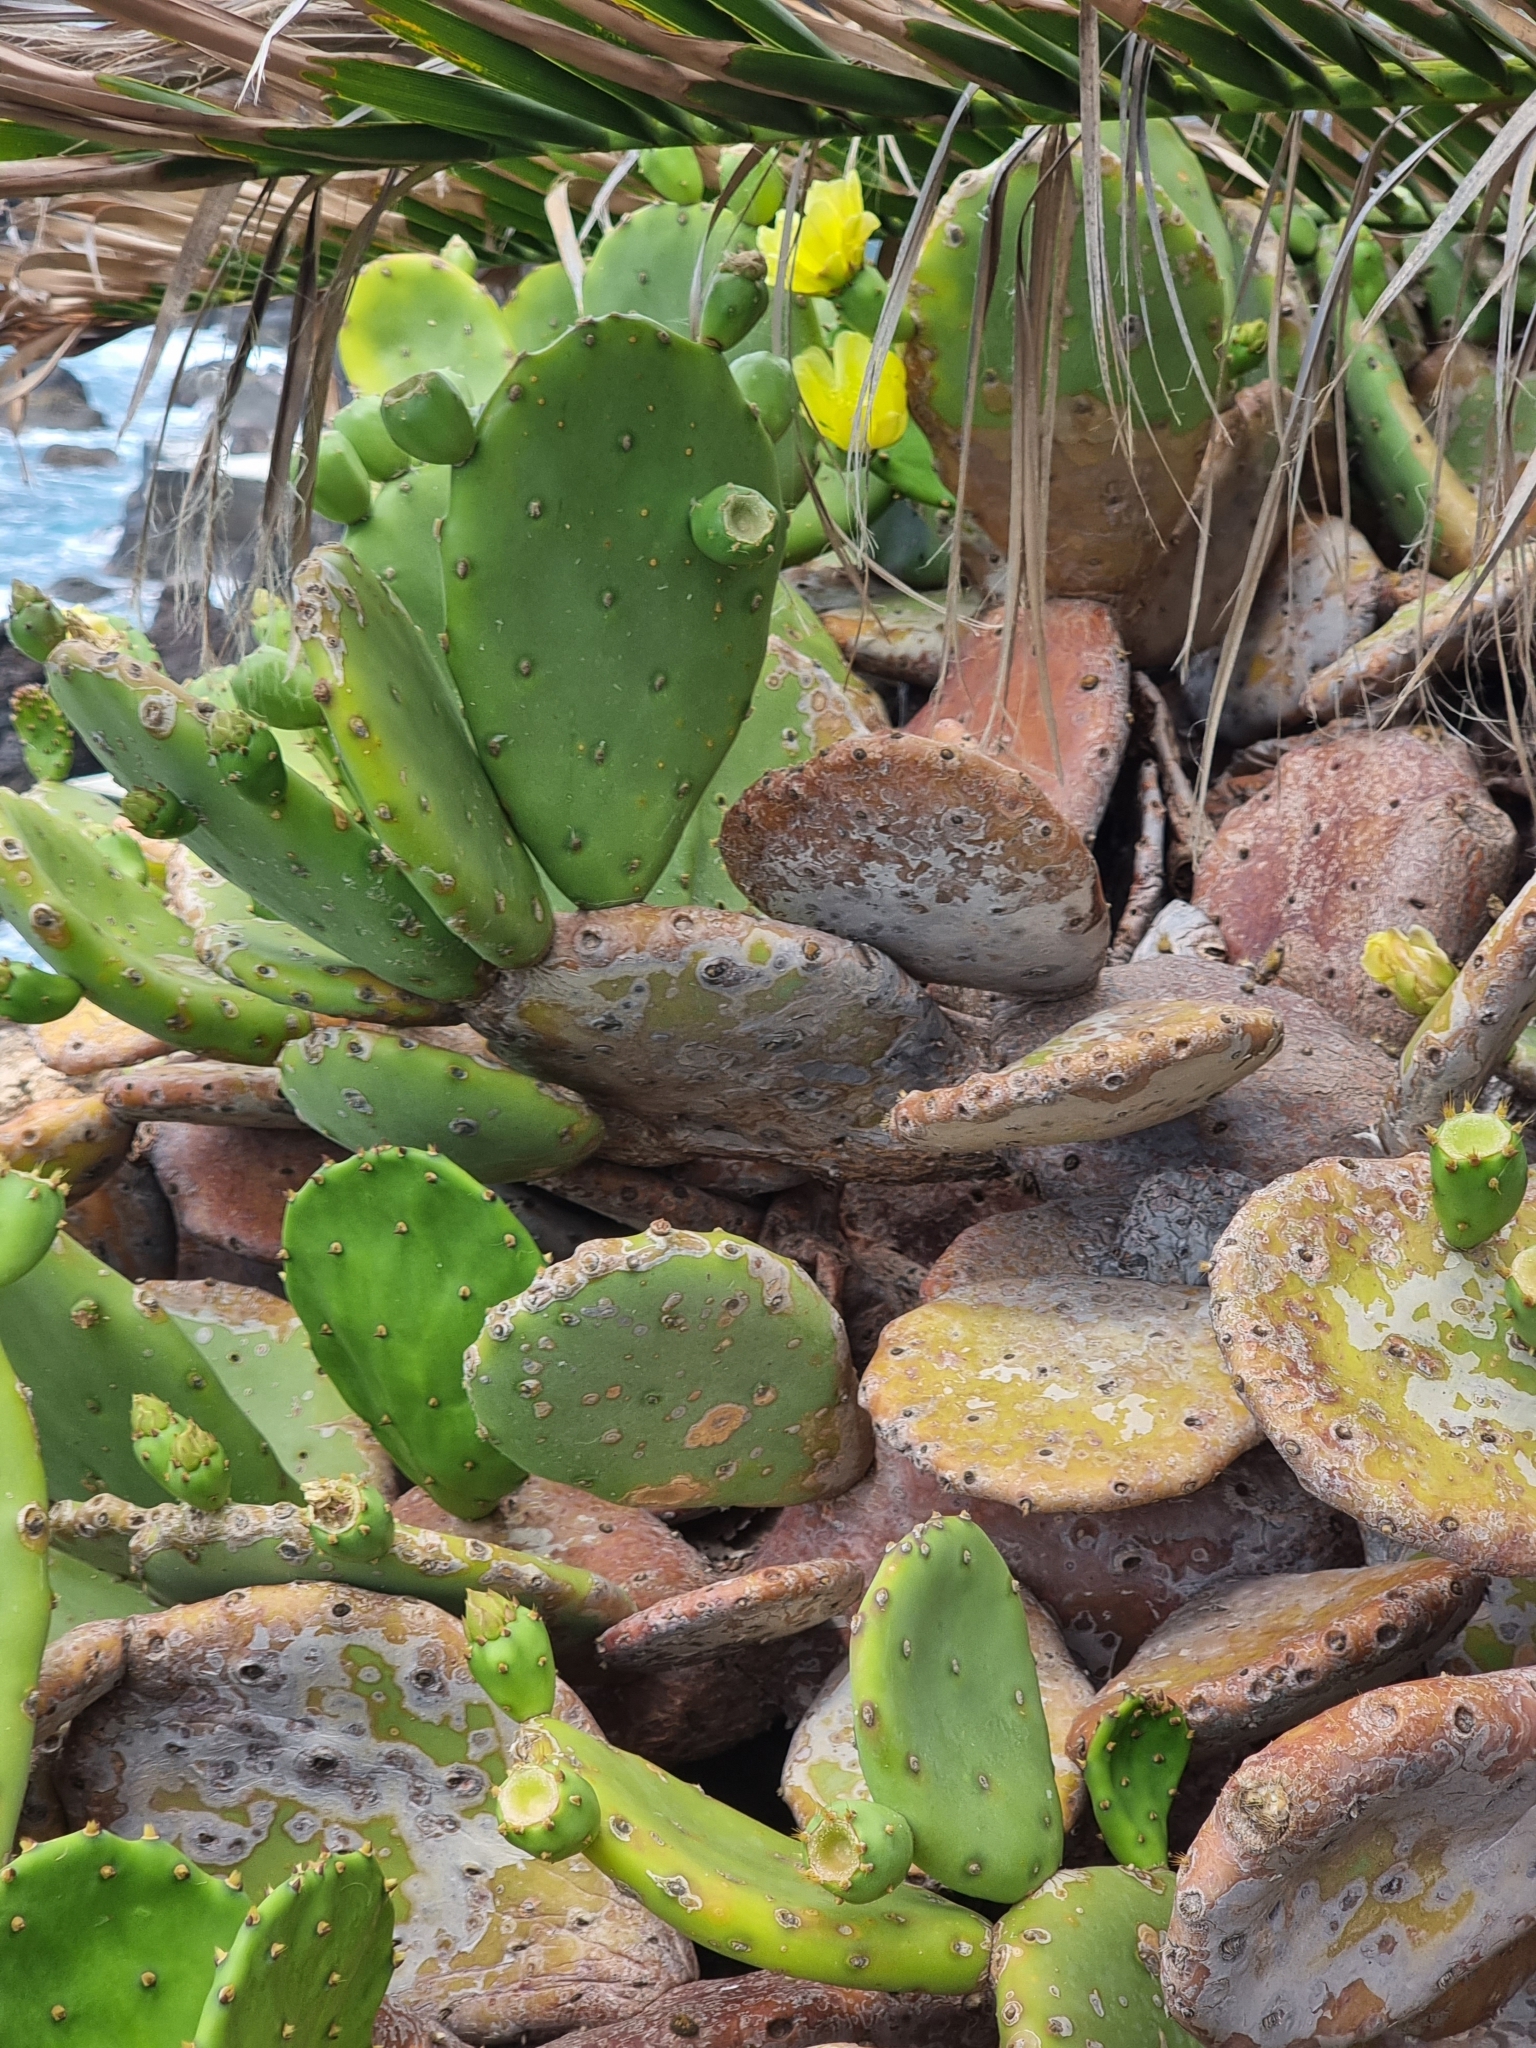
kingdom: Plantae
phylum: Tracheophyta
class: Magnoliopsida
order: Caryophyllales
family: Cactaceae
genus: Opuntia
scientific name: Opuntia ficus-indica
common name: Barbary fig
